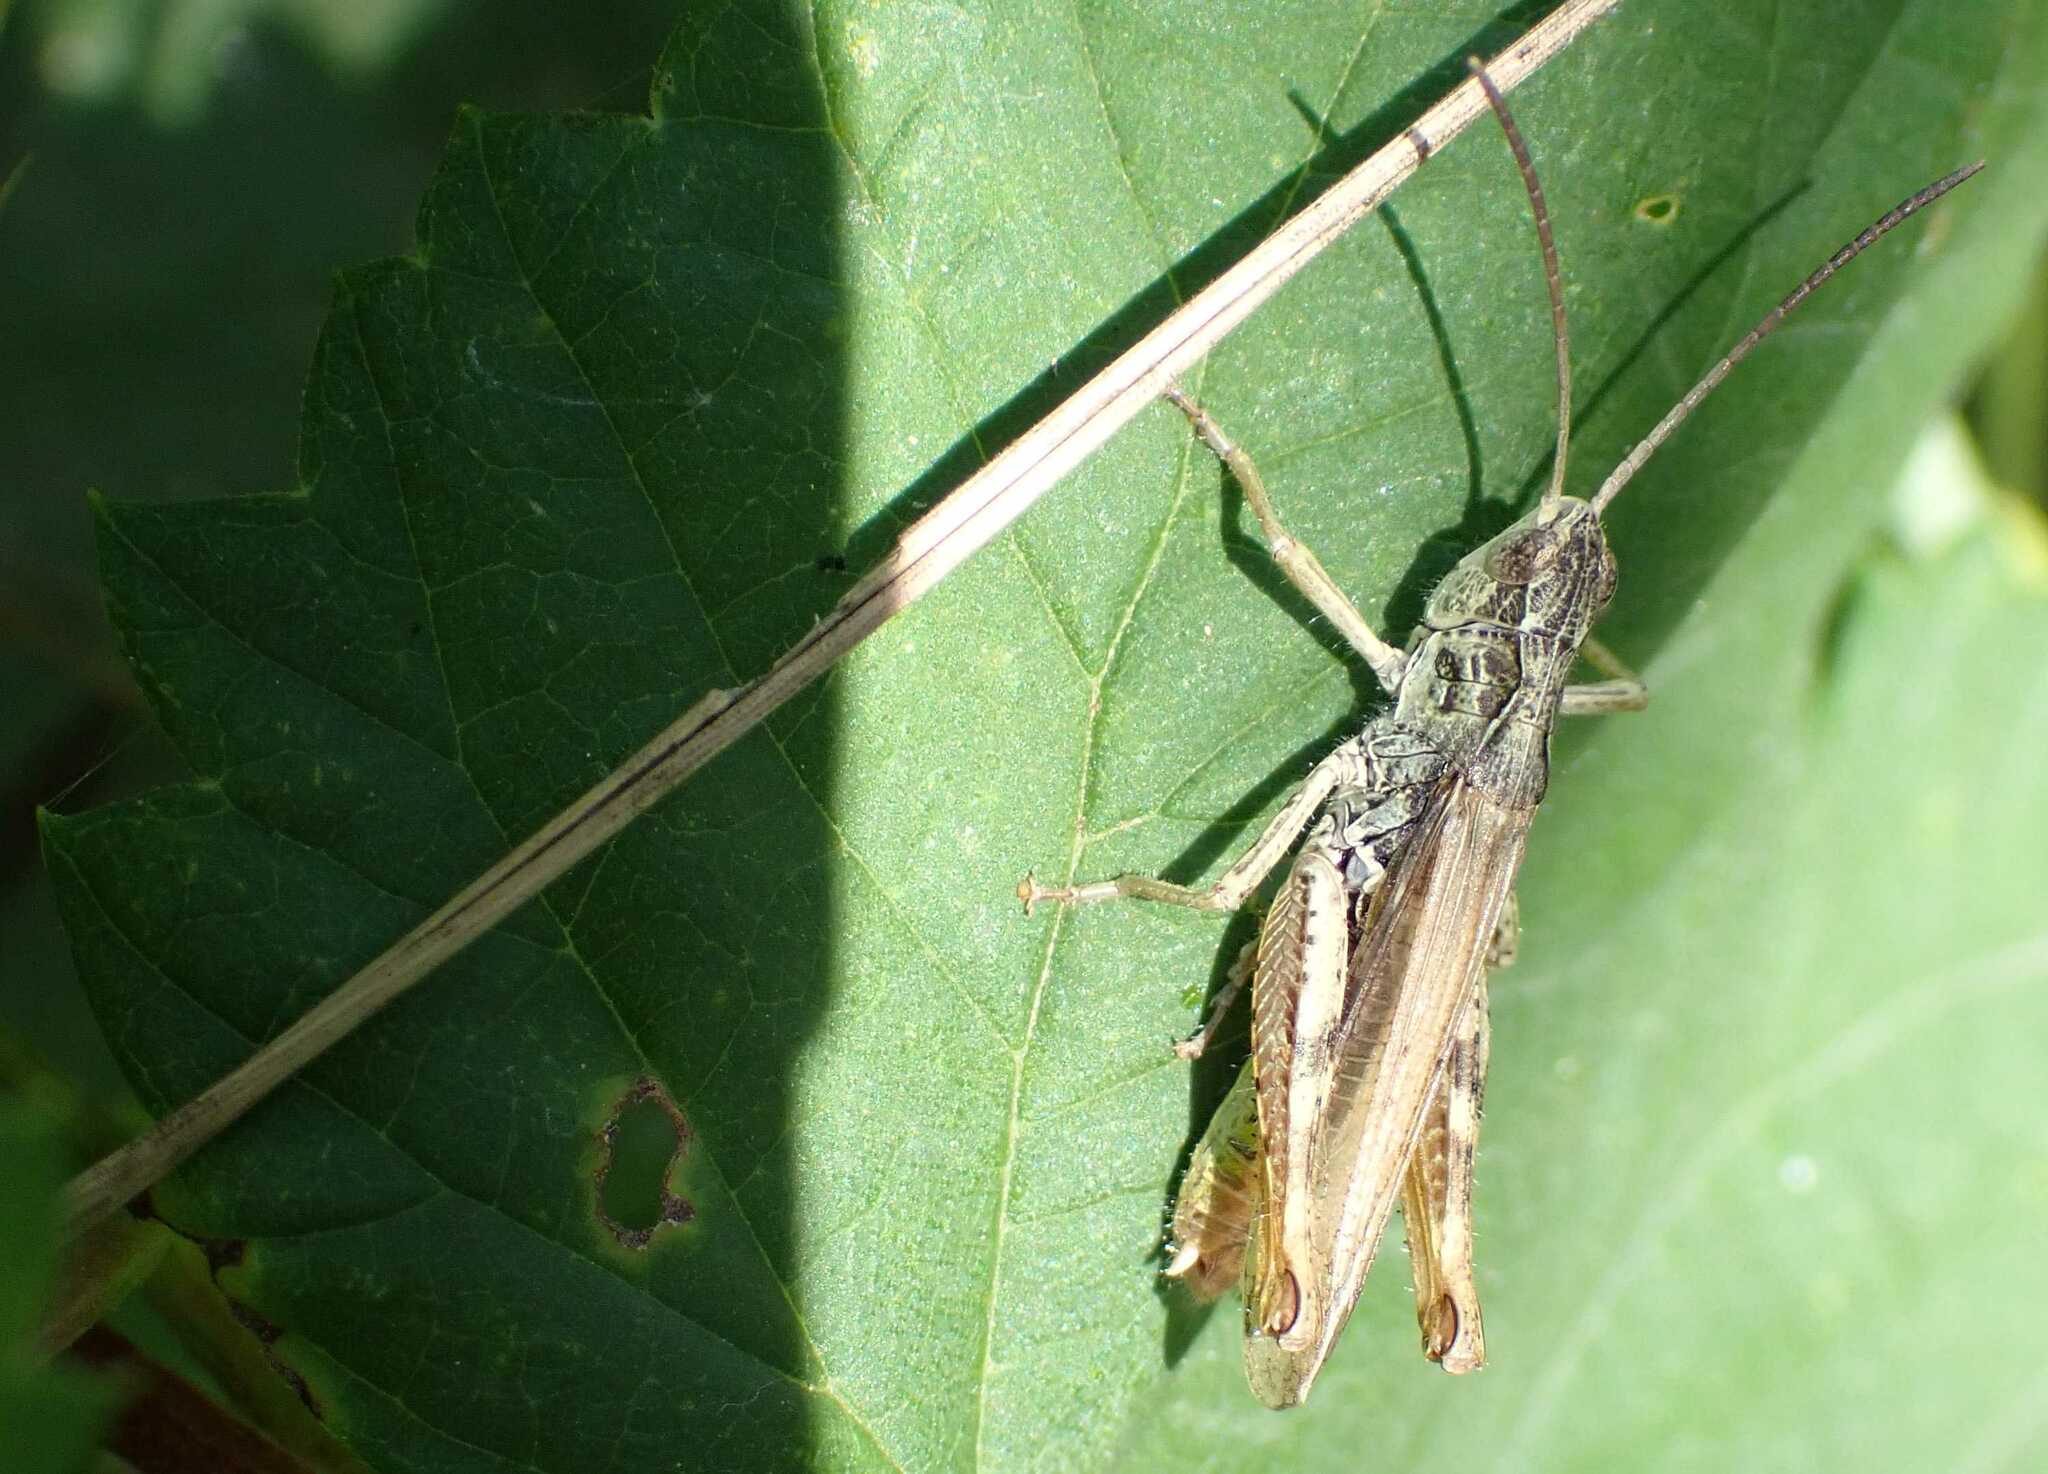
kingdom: Animalia
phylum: Arthropoda
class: Insecta
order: Orthoptera
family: Acrididae
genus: Chorthippus
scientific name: Chorthippus apricarius
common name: Upland field grasshopper
